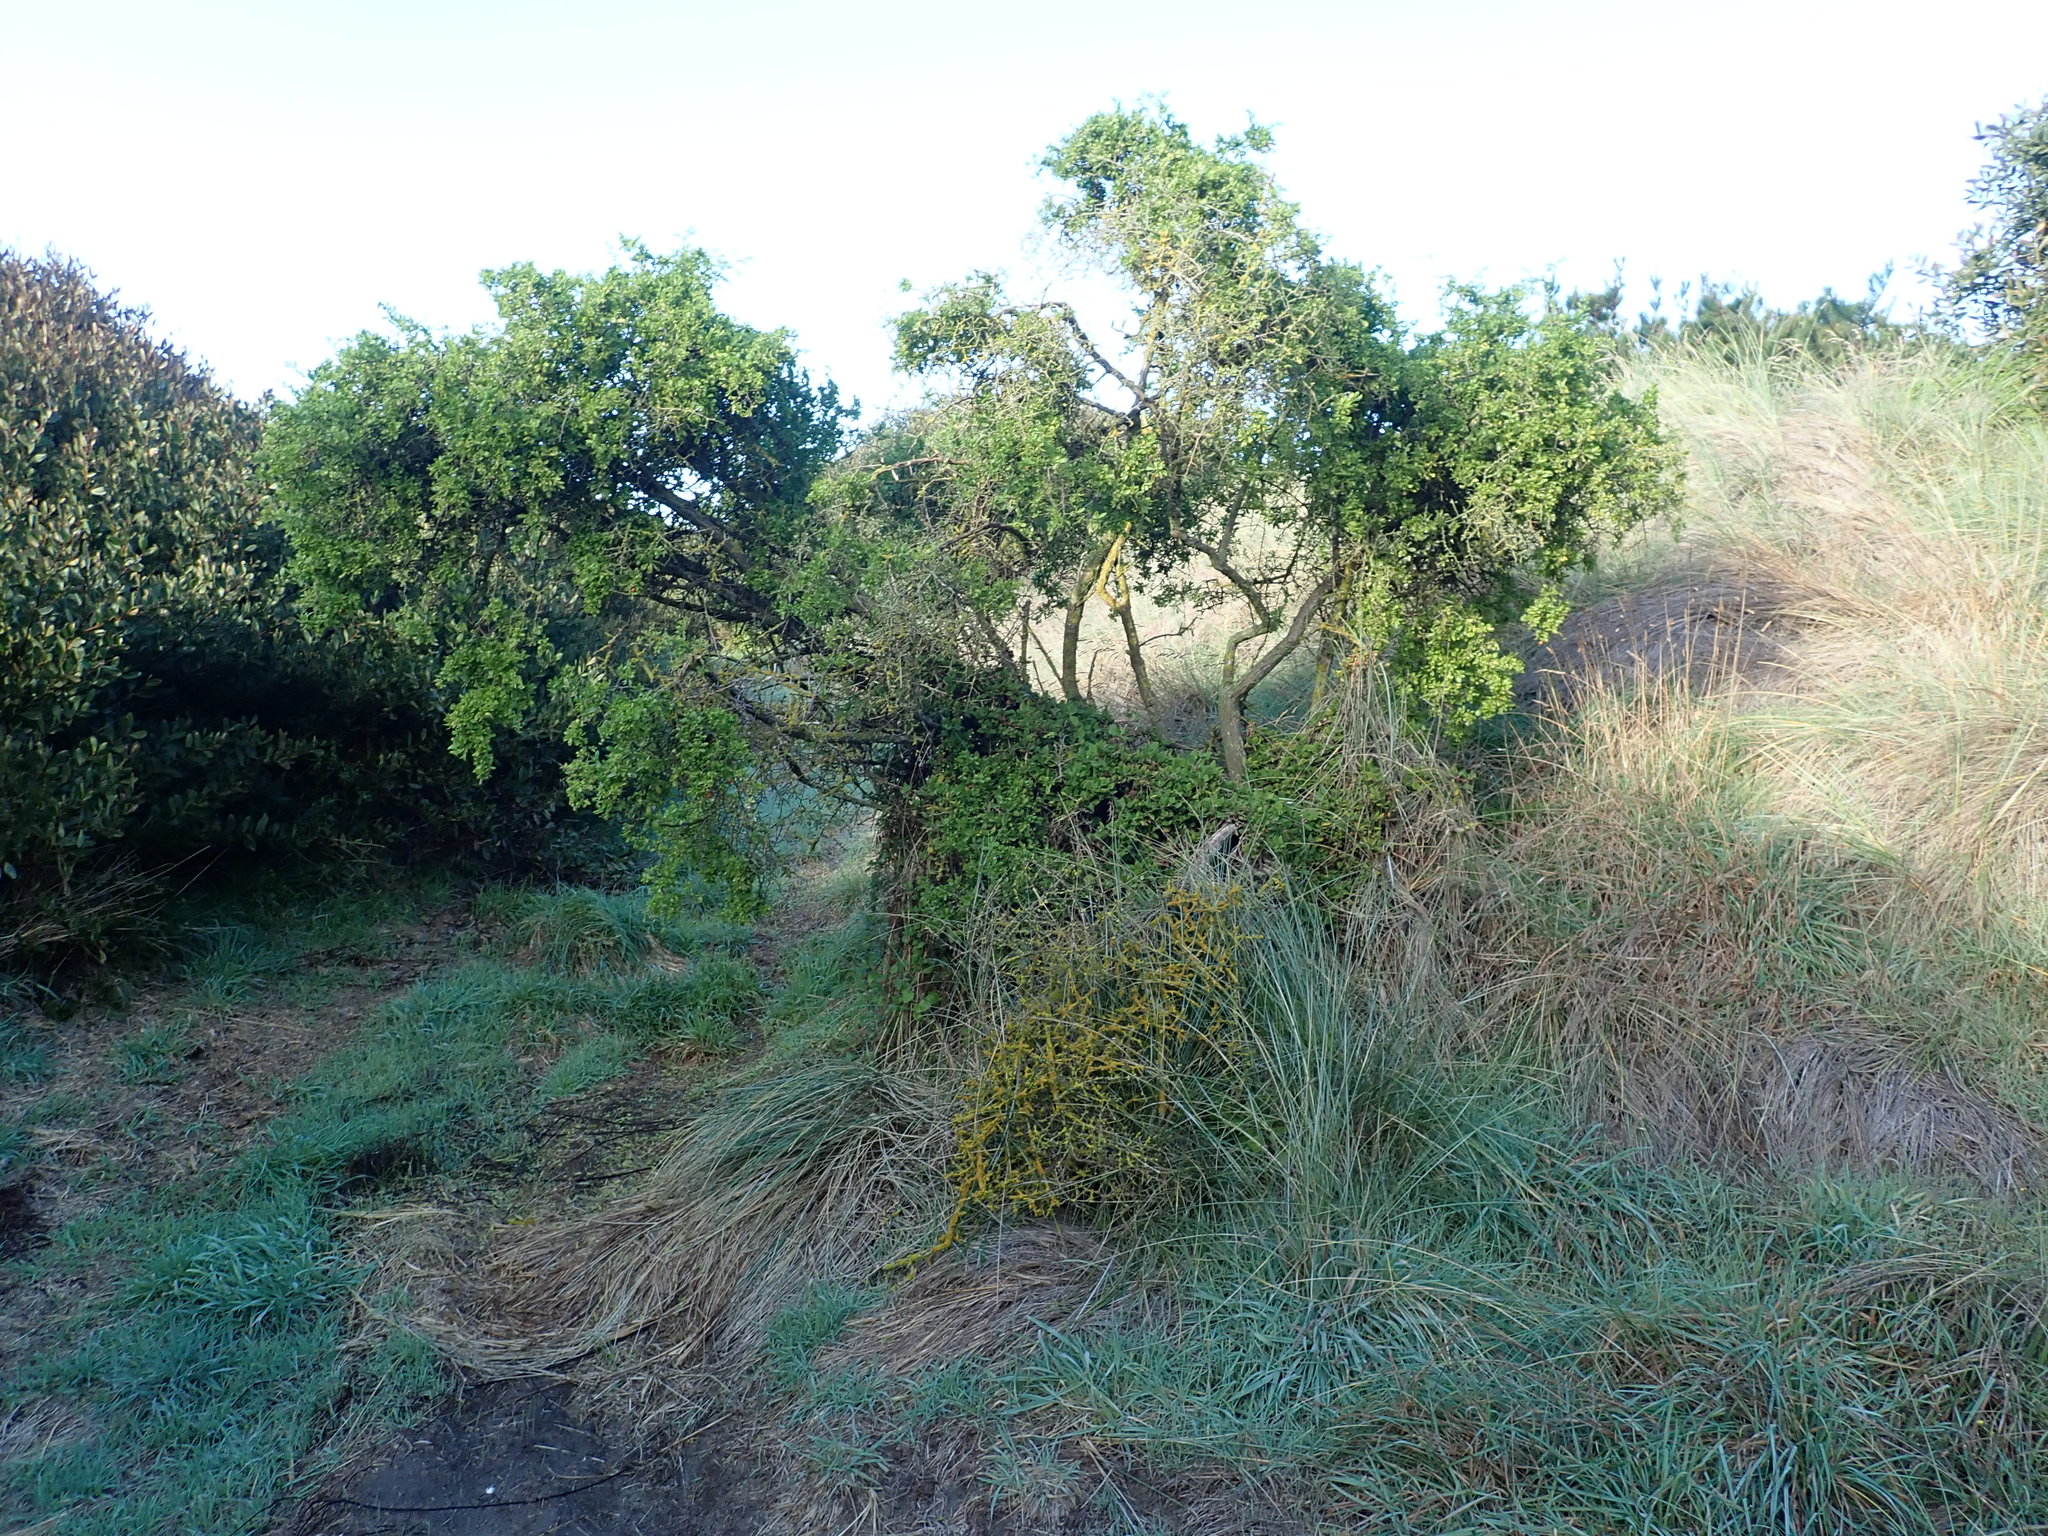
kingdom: Plantae
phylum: Tracheophyta
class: Magnoliopsida
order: Solanales
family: Solanaceae
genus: Lycium
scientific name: Lycium ferocissimum
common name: African boxthorn
